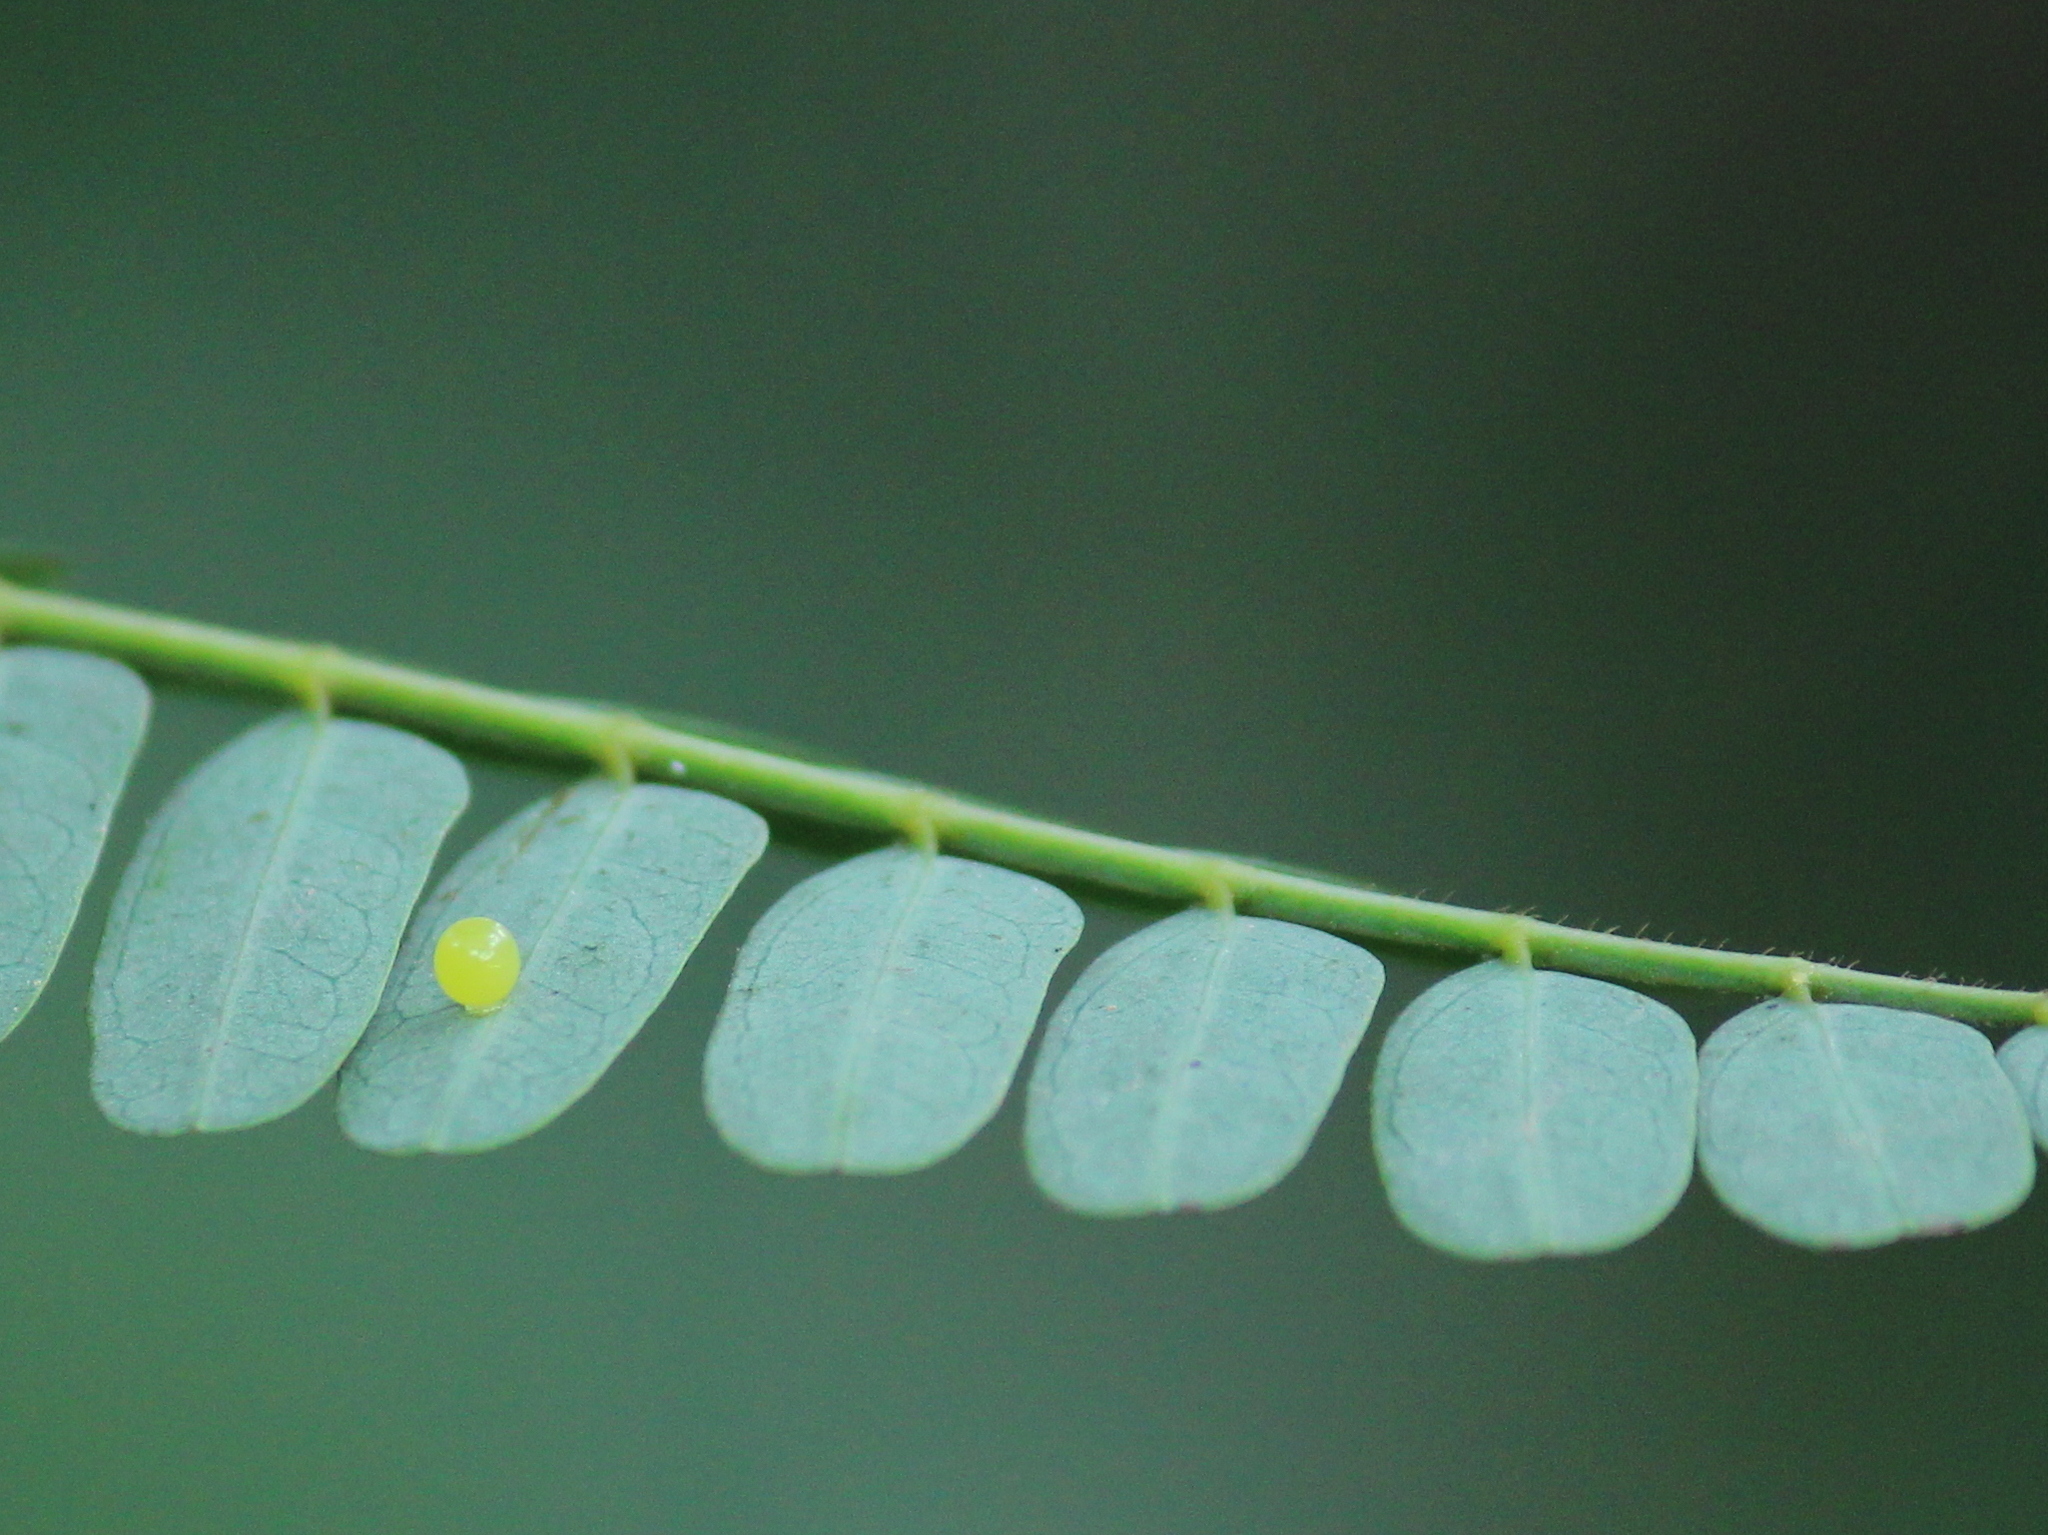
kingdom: Animalia
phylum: Arthropoda
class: Insecta
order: Lepidoptera
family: Nymphalidae
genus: Charaxes
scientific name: Charaxes solon
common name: Black rajah
